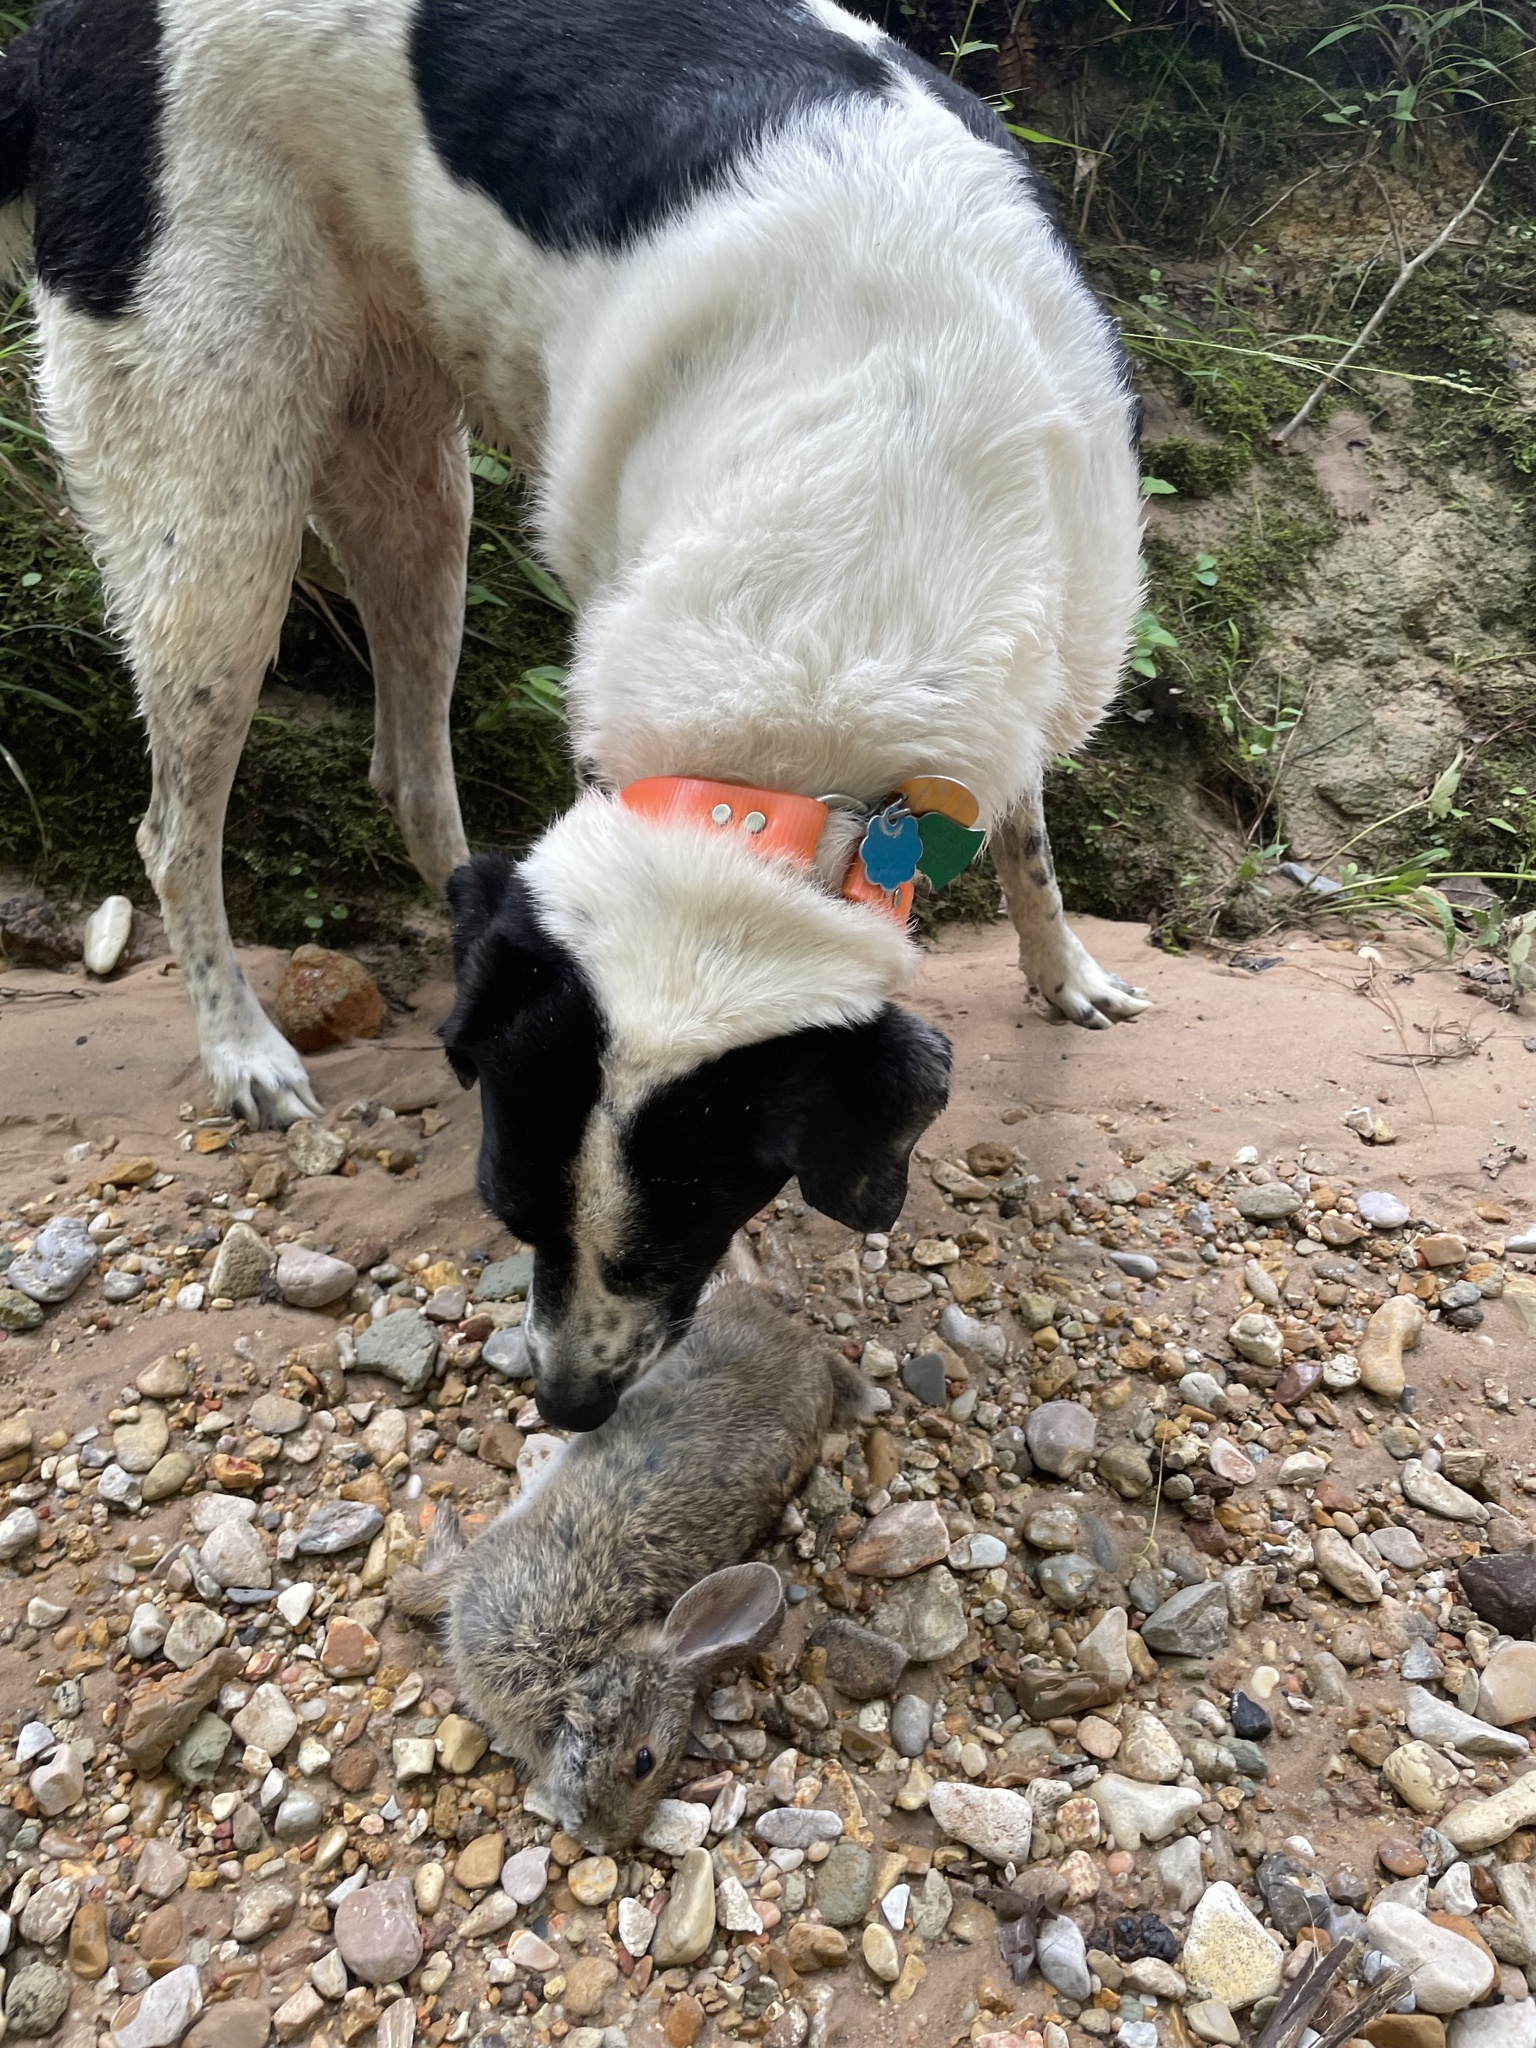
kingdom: Animalia
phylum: Chordata
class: Mammalia
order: Lagomorpha
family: Leporidae
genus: Sylvilagus
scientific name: Sylvilagus floridanus
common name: Eastern cottontail
